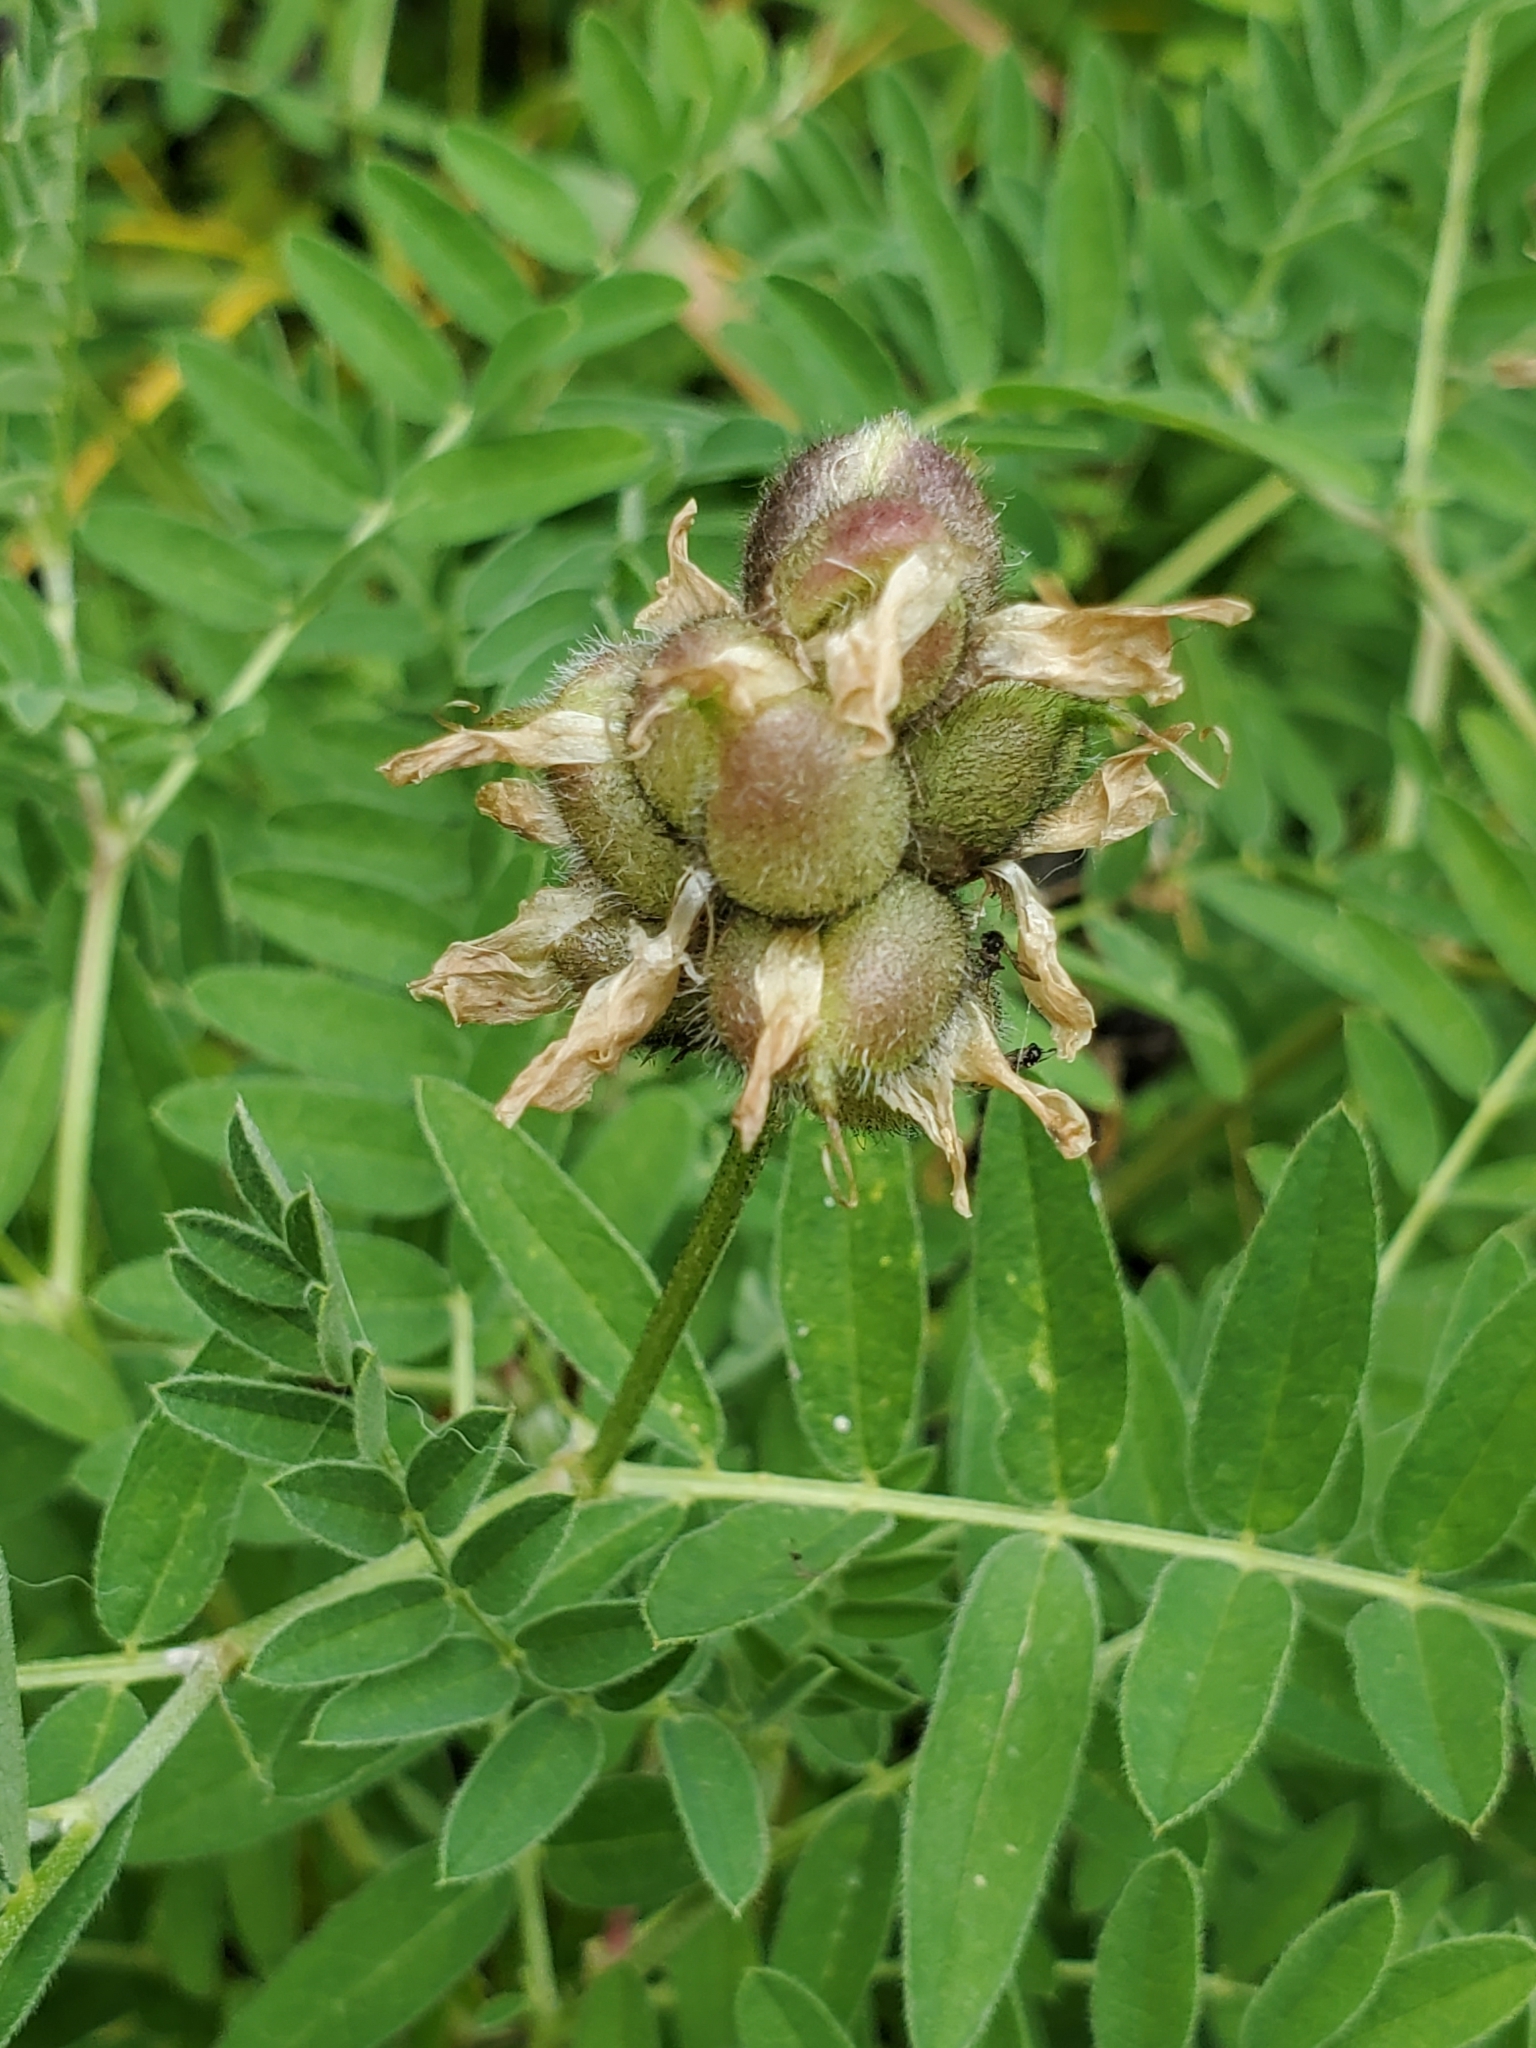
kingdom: Plantae
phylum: Tracheophyta
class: Magnoliopsida
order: Fabales
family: Fabaceae
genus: Astragalus
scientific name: Astragalus cicer
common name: Chick-pea milk-vetch
